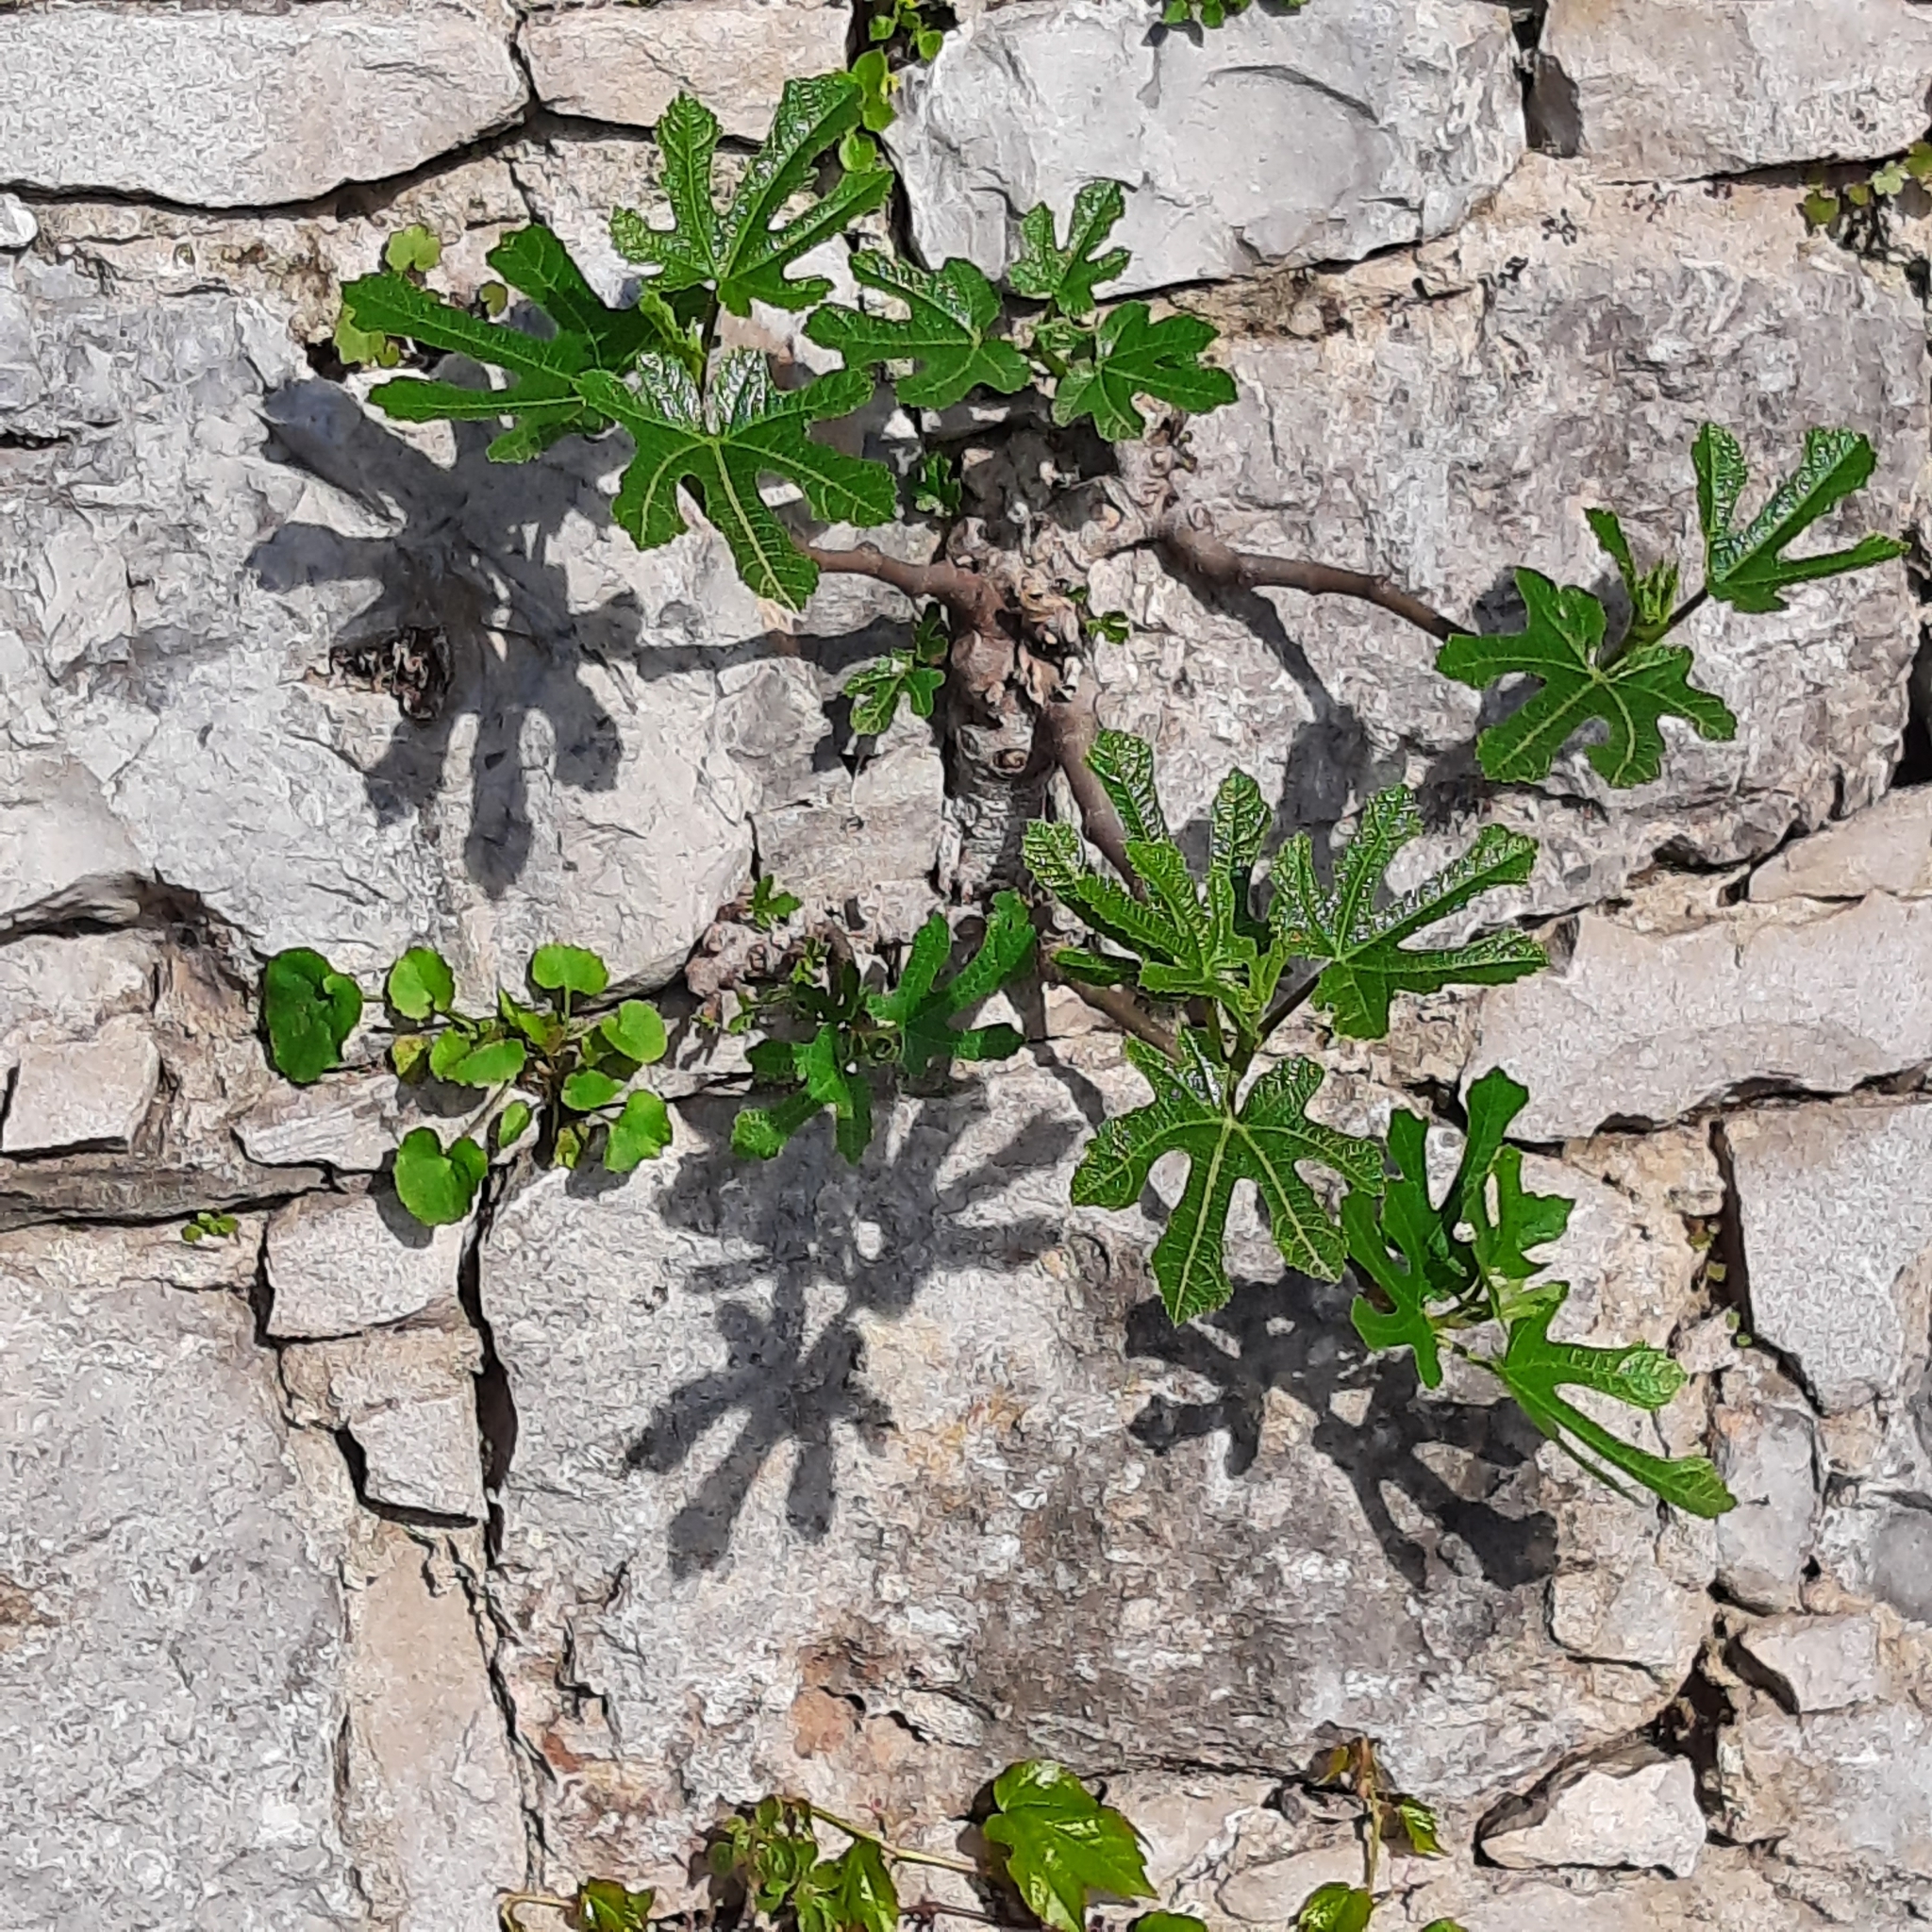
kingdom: Plantae
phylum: Tracheophyta
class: Magnoliopsida
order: Rosales
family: Moraceae
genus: Ficus
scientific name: Ficus carica
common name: Fig
